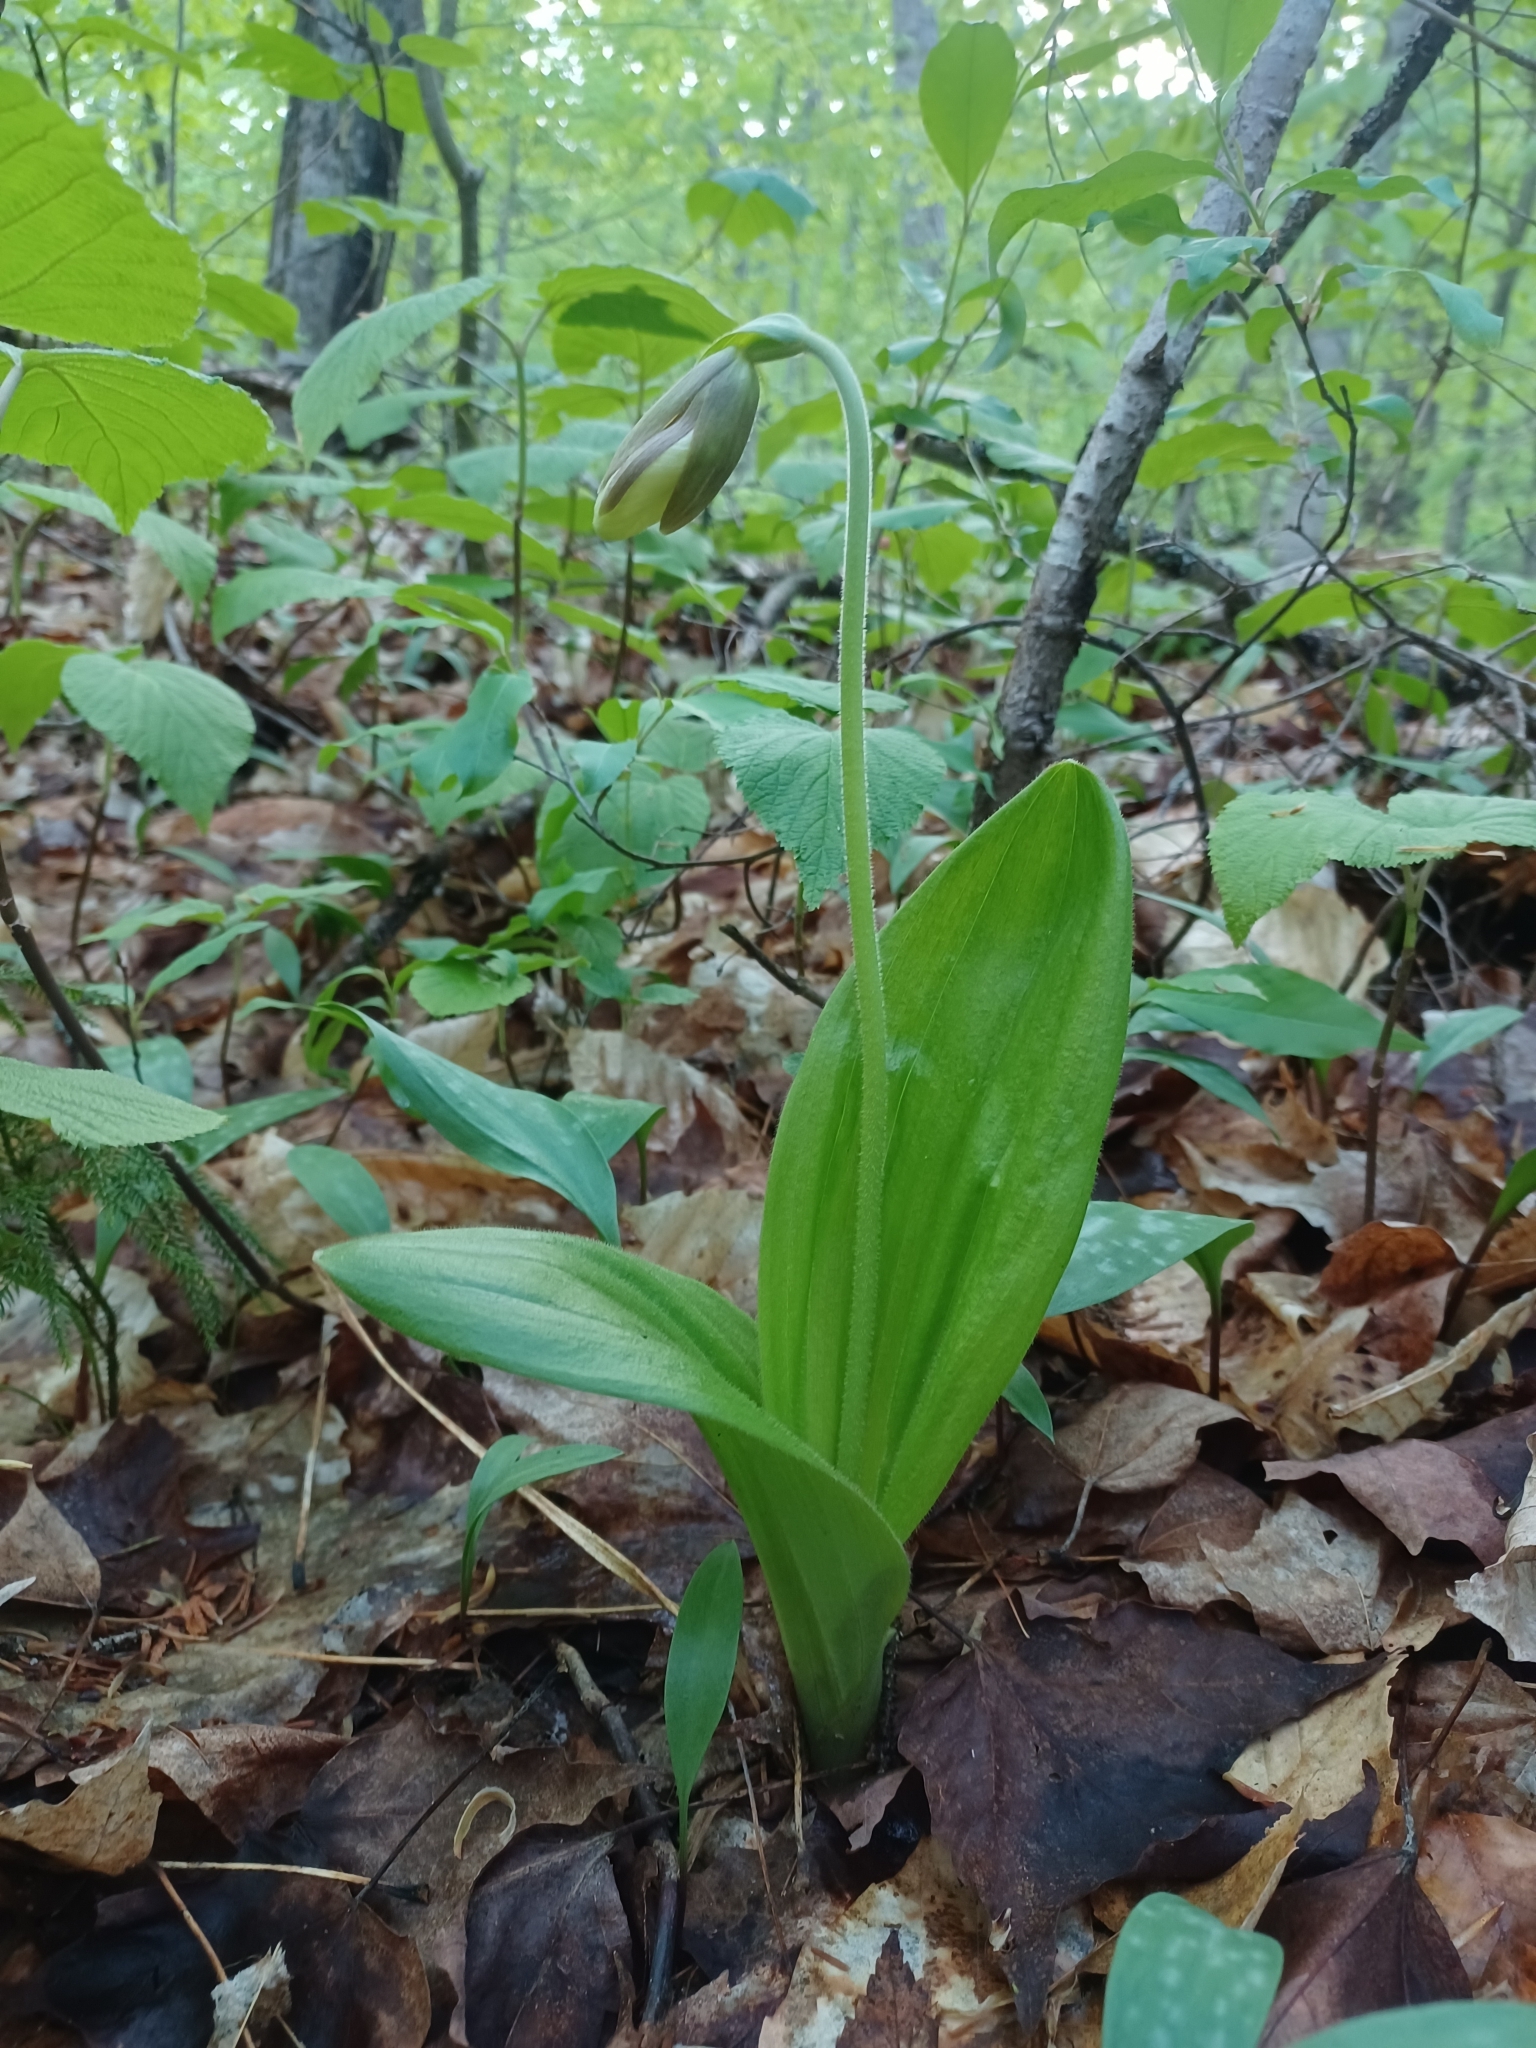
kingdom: Plantae
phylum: Tracheophyta
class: Liliopsida
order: Asparagales
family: Orchidaceae
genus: Cypripedium
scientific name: Cypripedium acaule
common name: Pink lady's-slipper
